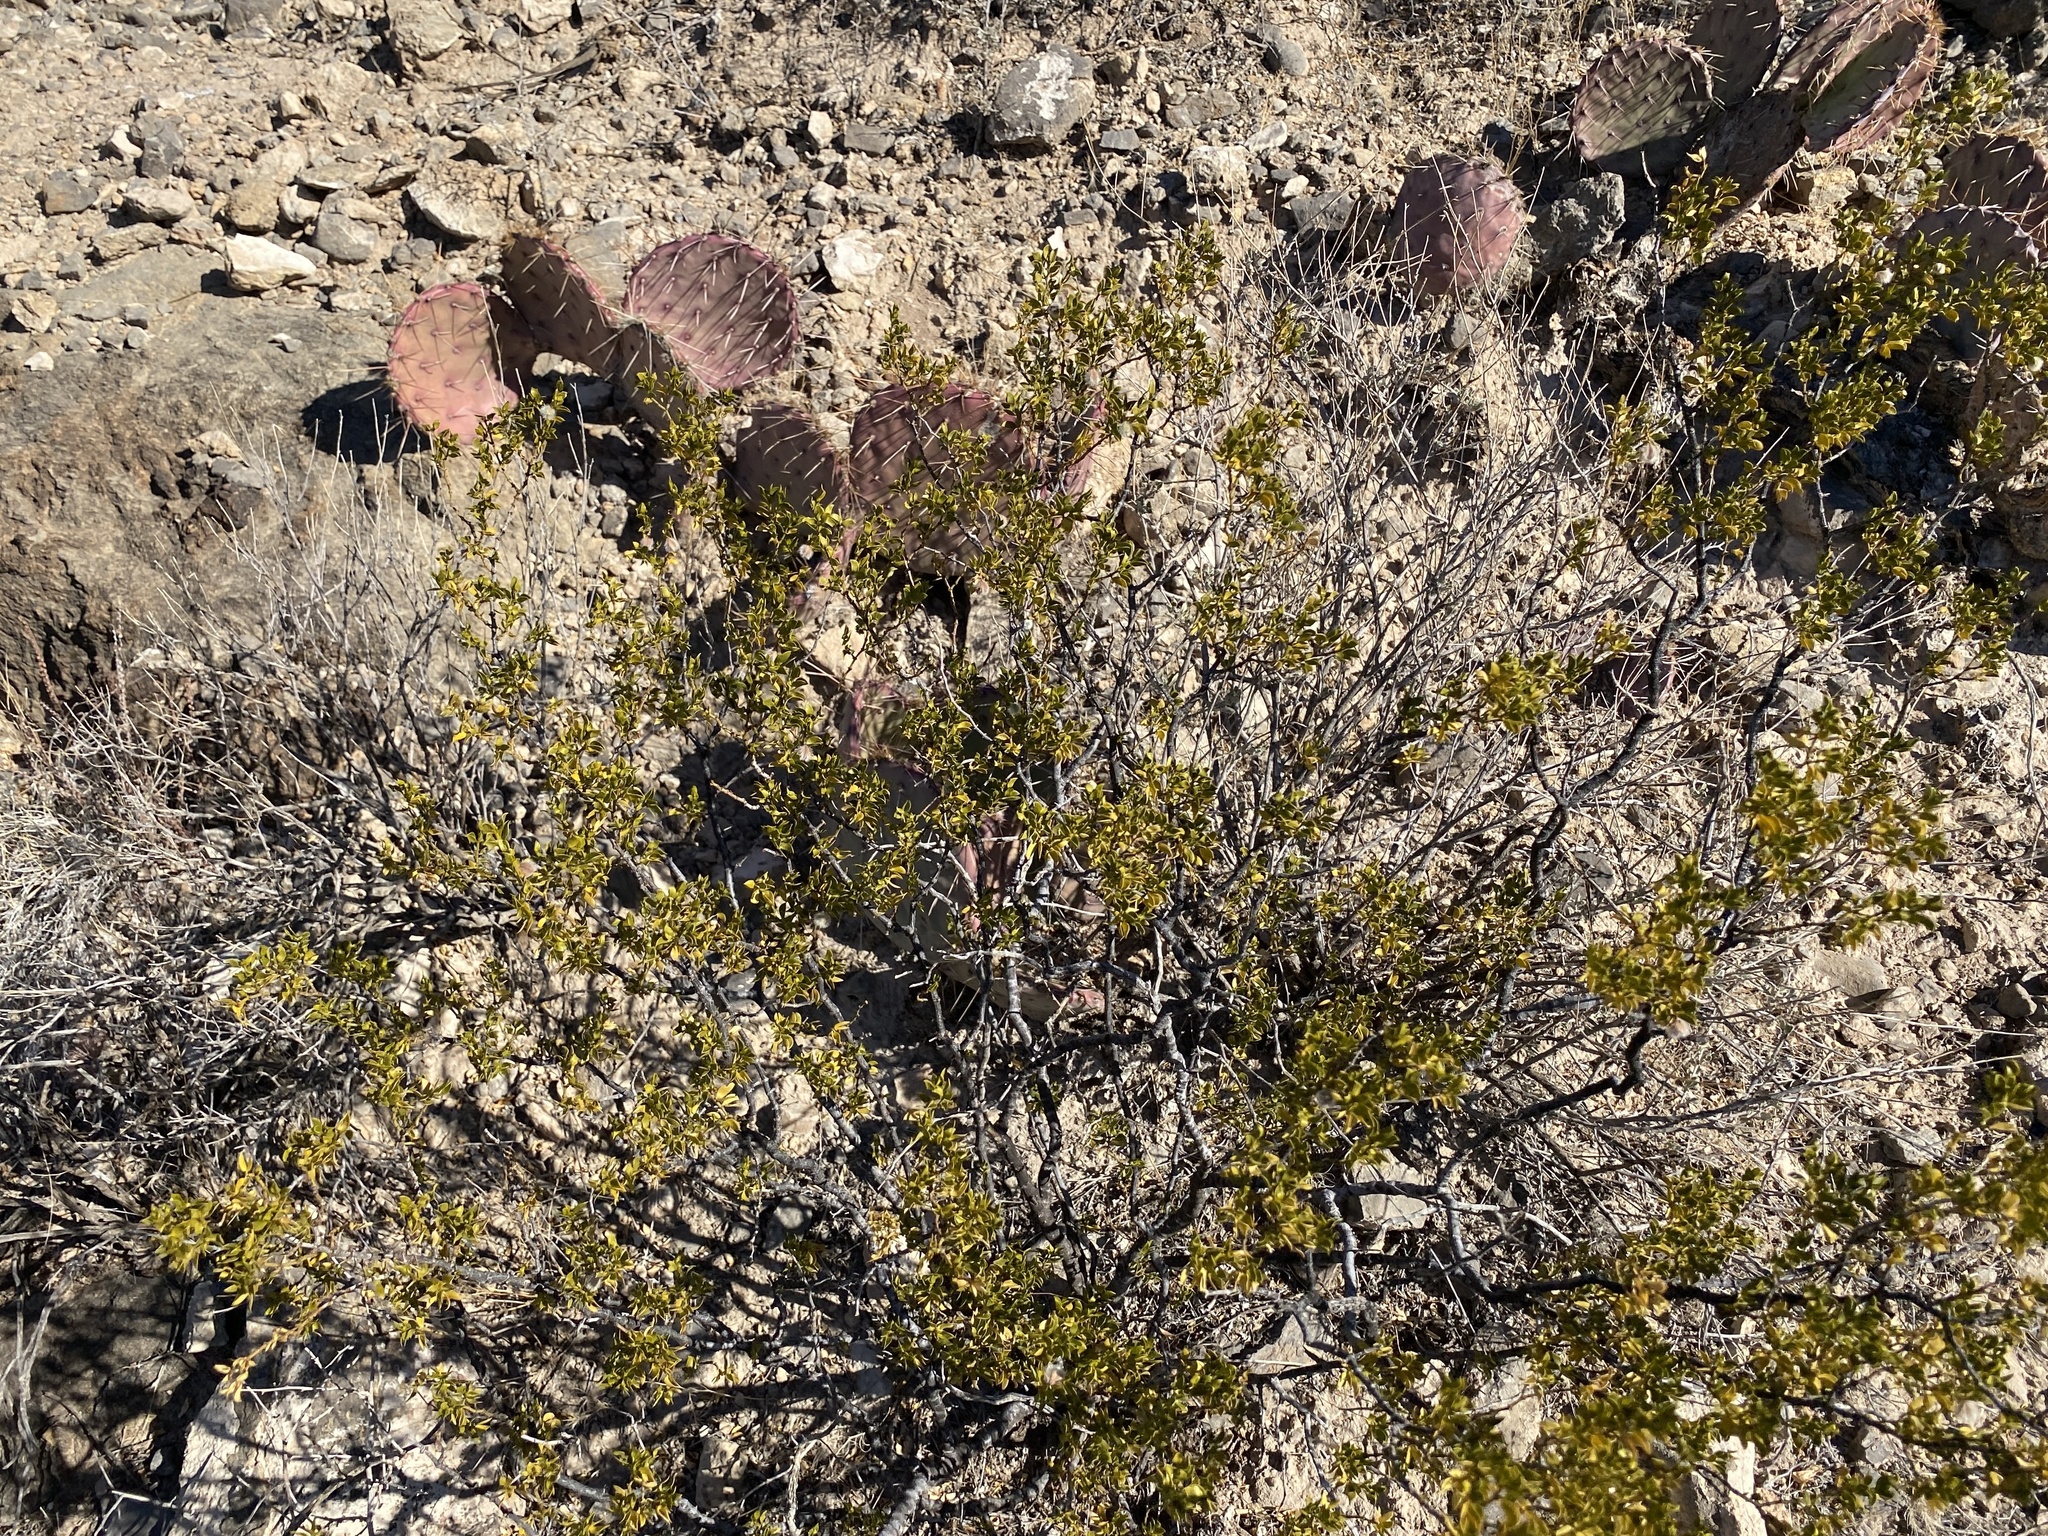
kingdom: Plantae
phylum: Tracheophyta
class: Magnoliopsida
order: Zygophyllales
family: Zygophyllaceae
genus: Larrea
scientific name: Larrea tridentata
